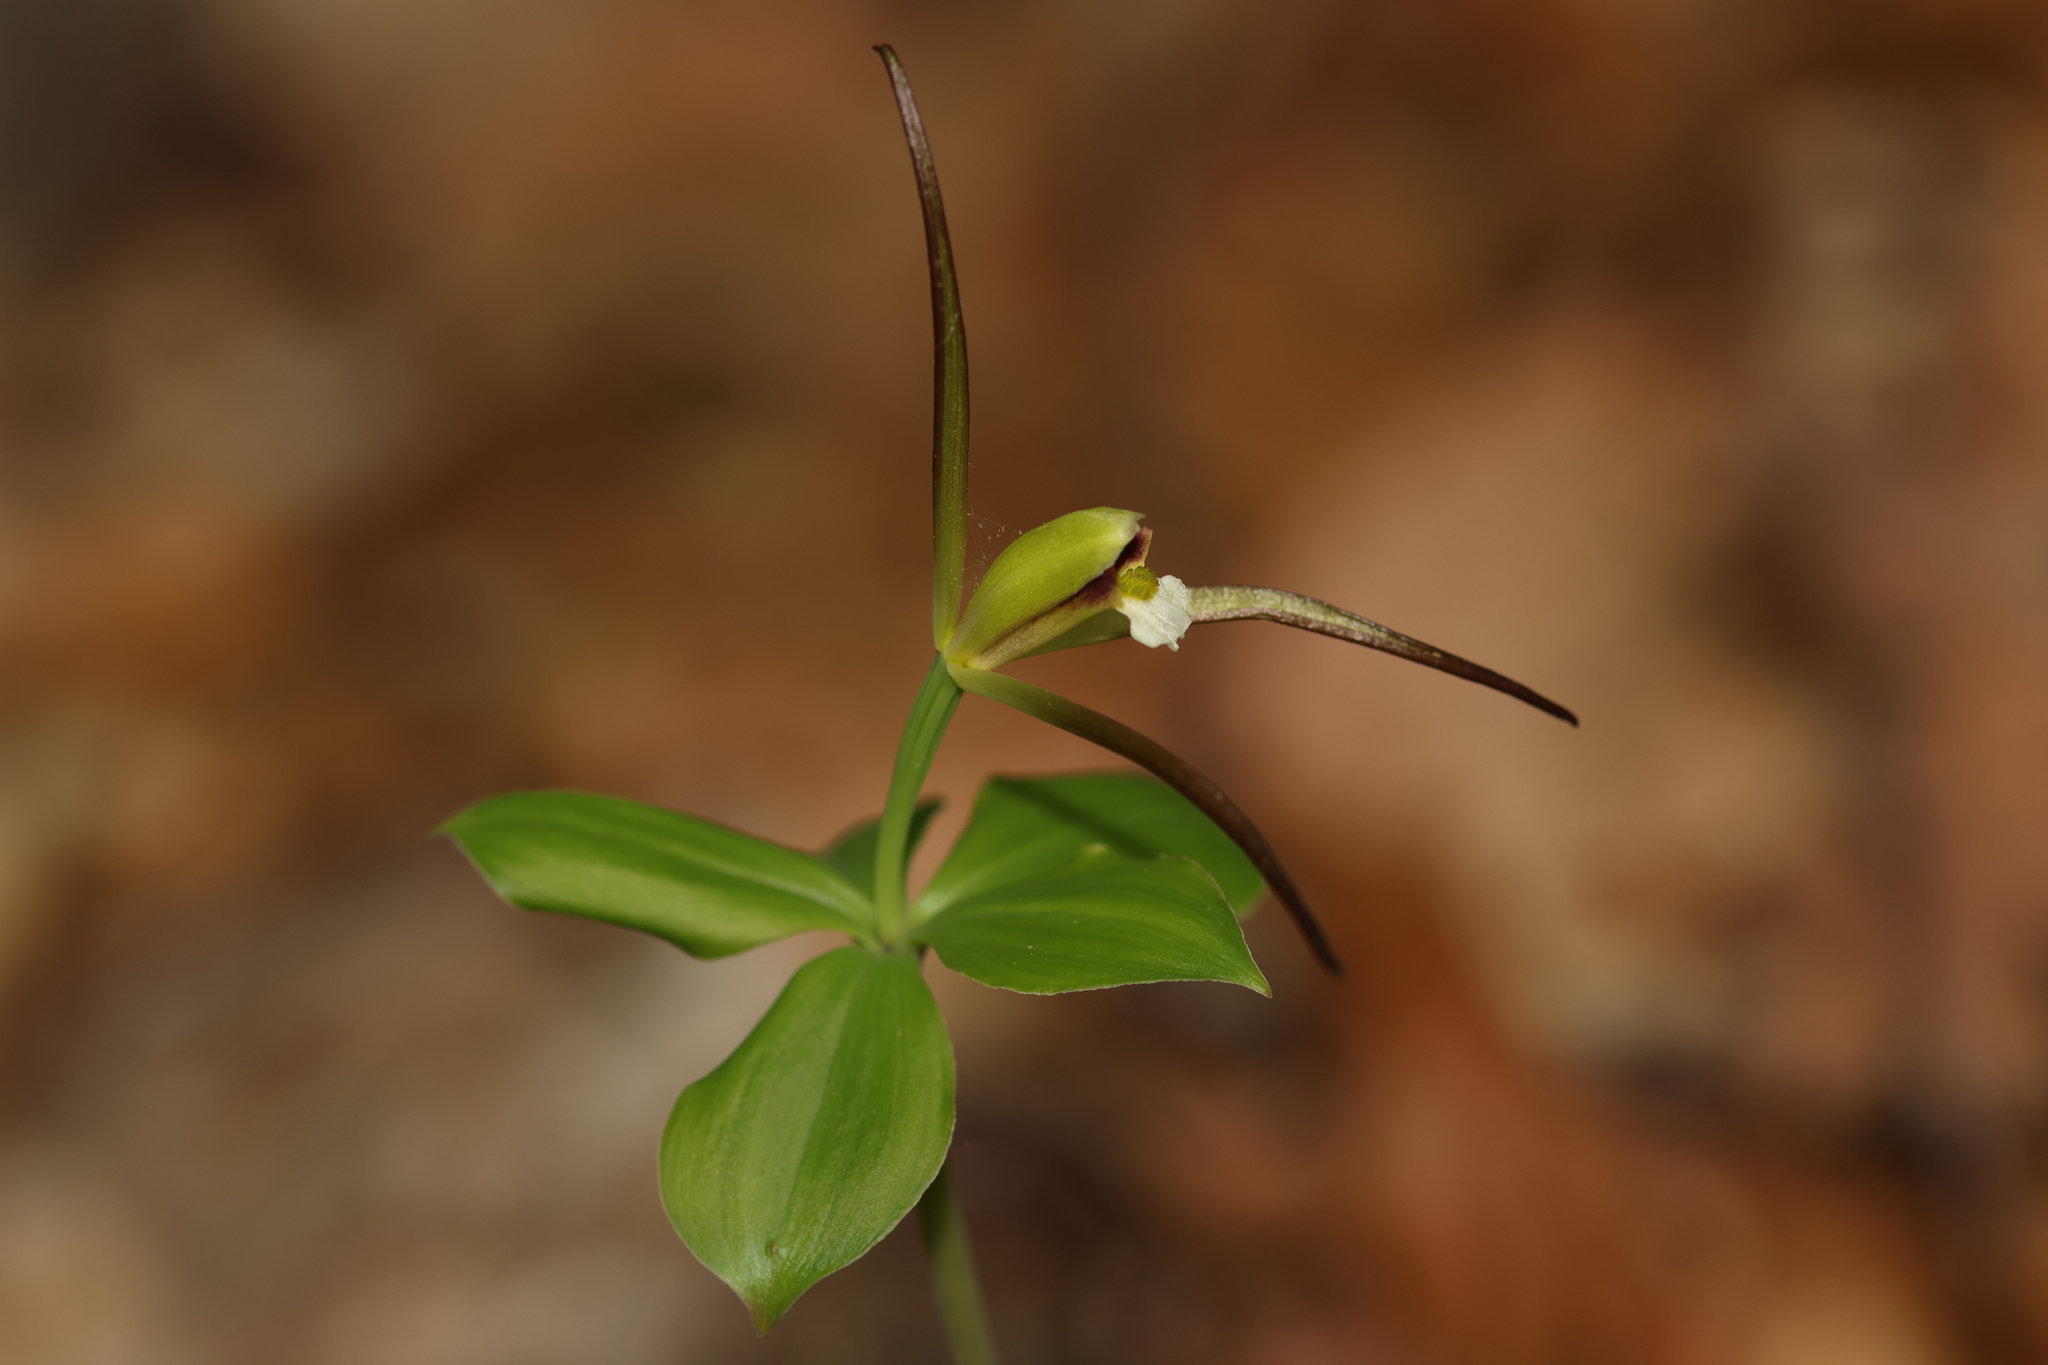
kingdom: Plantae
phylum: Tracheophyta
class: Liliopsida
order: Asparagales
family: Orchidaceae
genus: Isotria
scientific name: Isotria verticillata
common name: Large whorled pogonia
